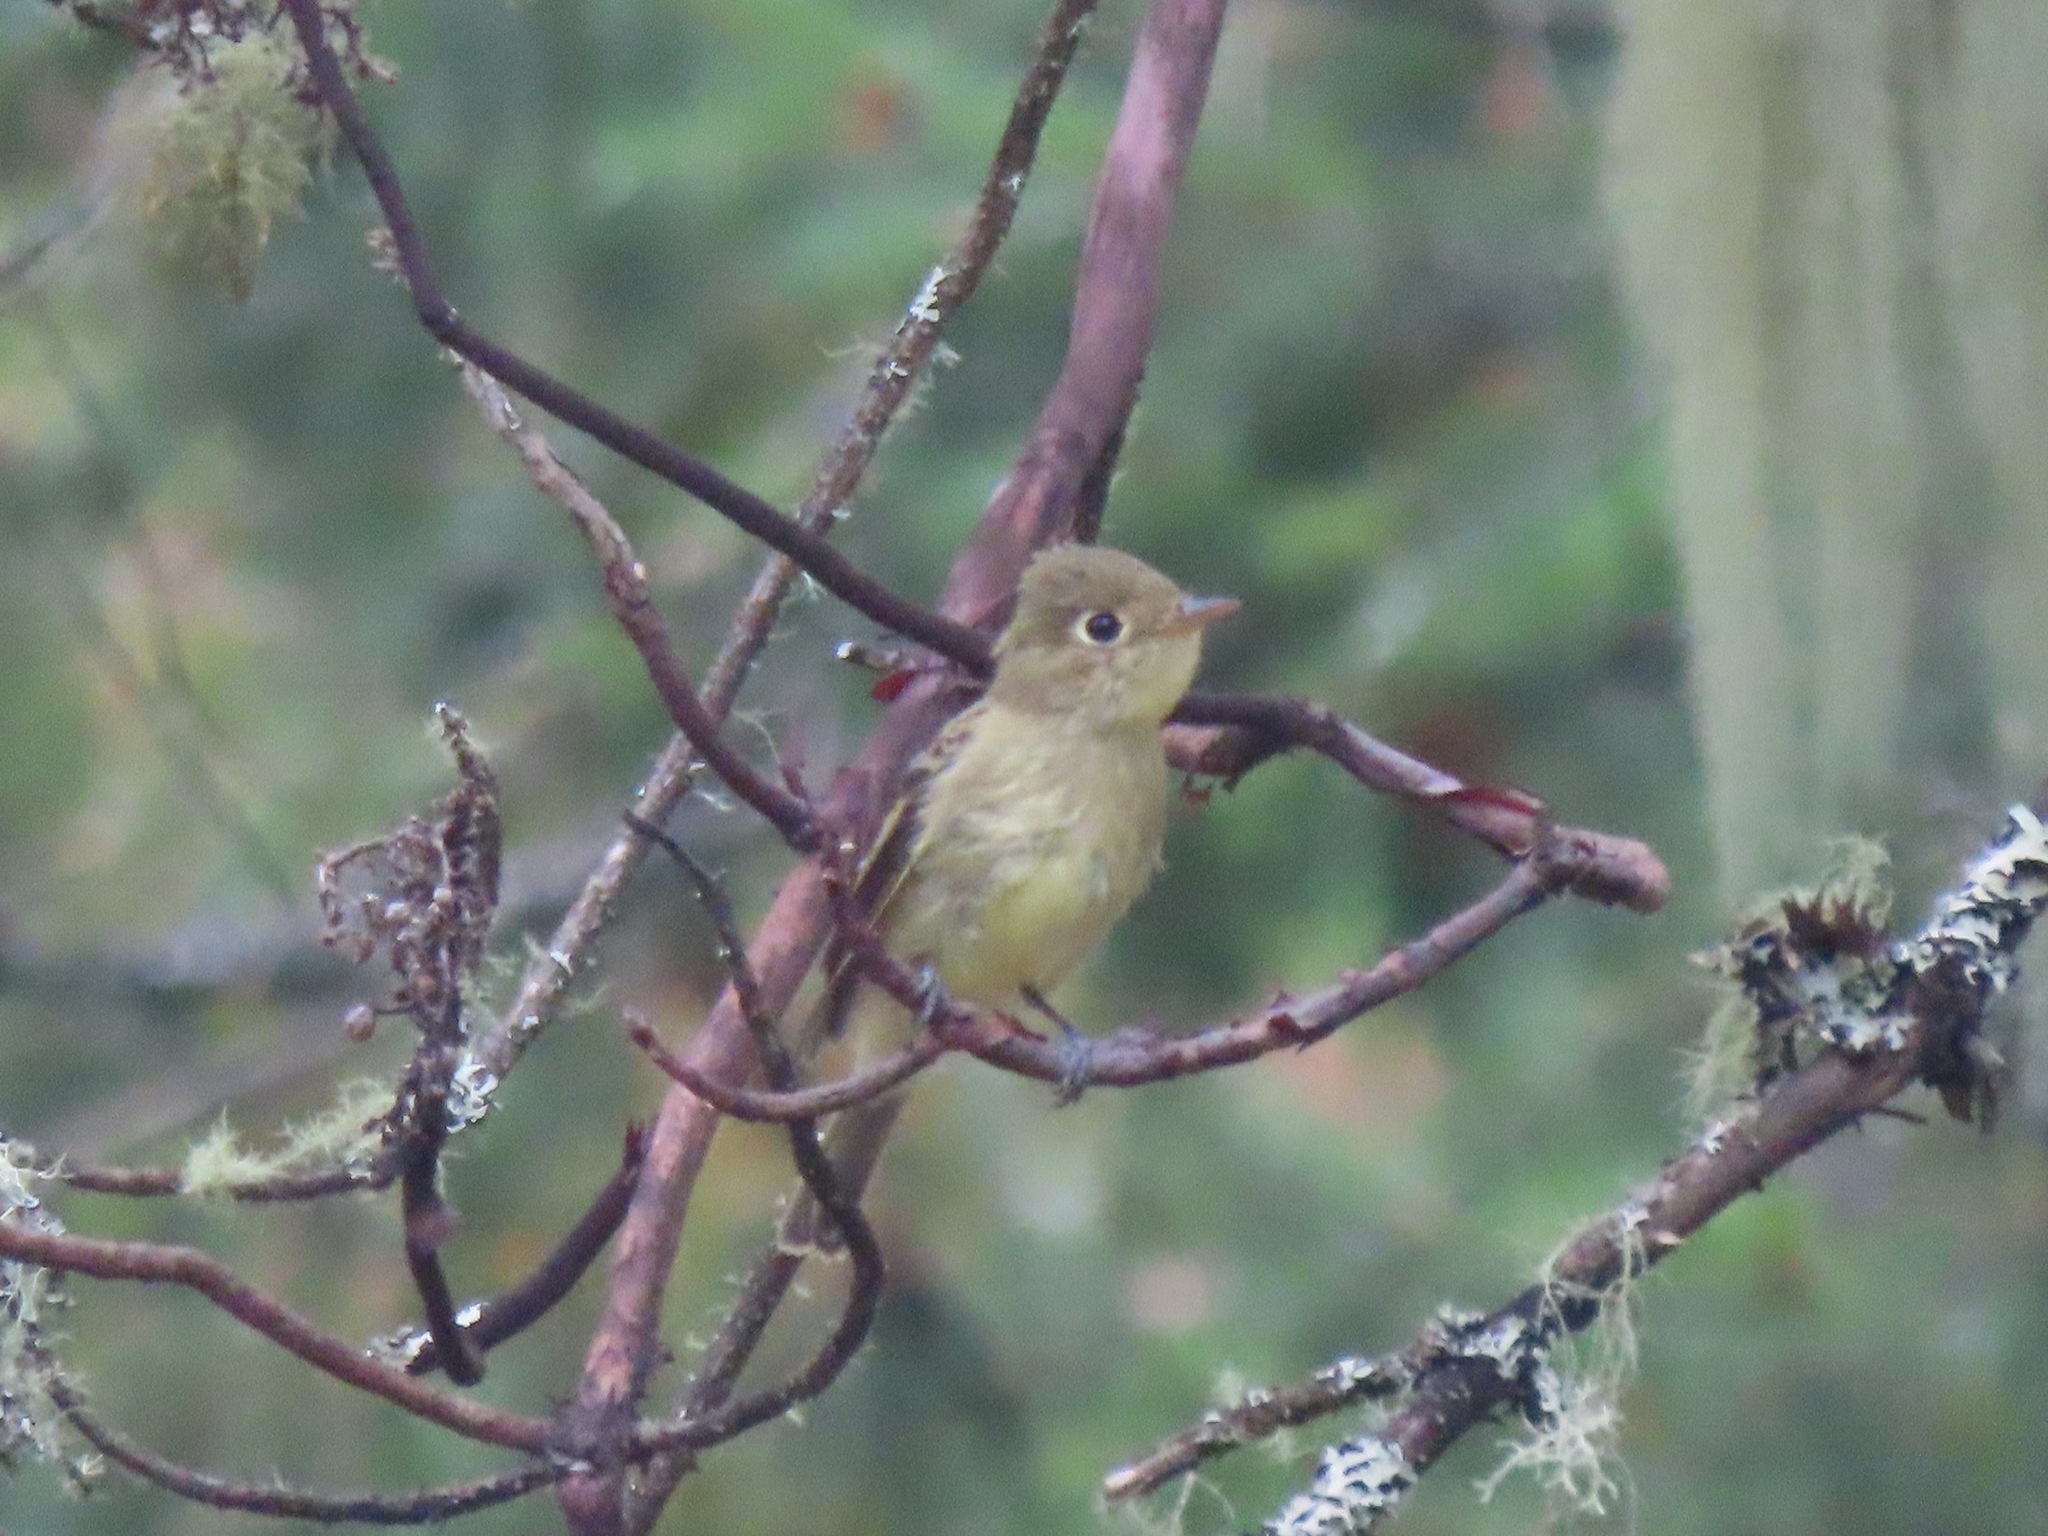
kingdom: Animalia
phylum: Chordata
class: Aves
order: Passeriformes
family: Tyrannidae
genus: Empidonax
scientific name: Empidonax difficilis
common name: Pacific-slope flycatcher
